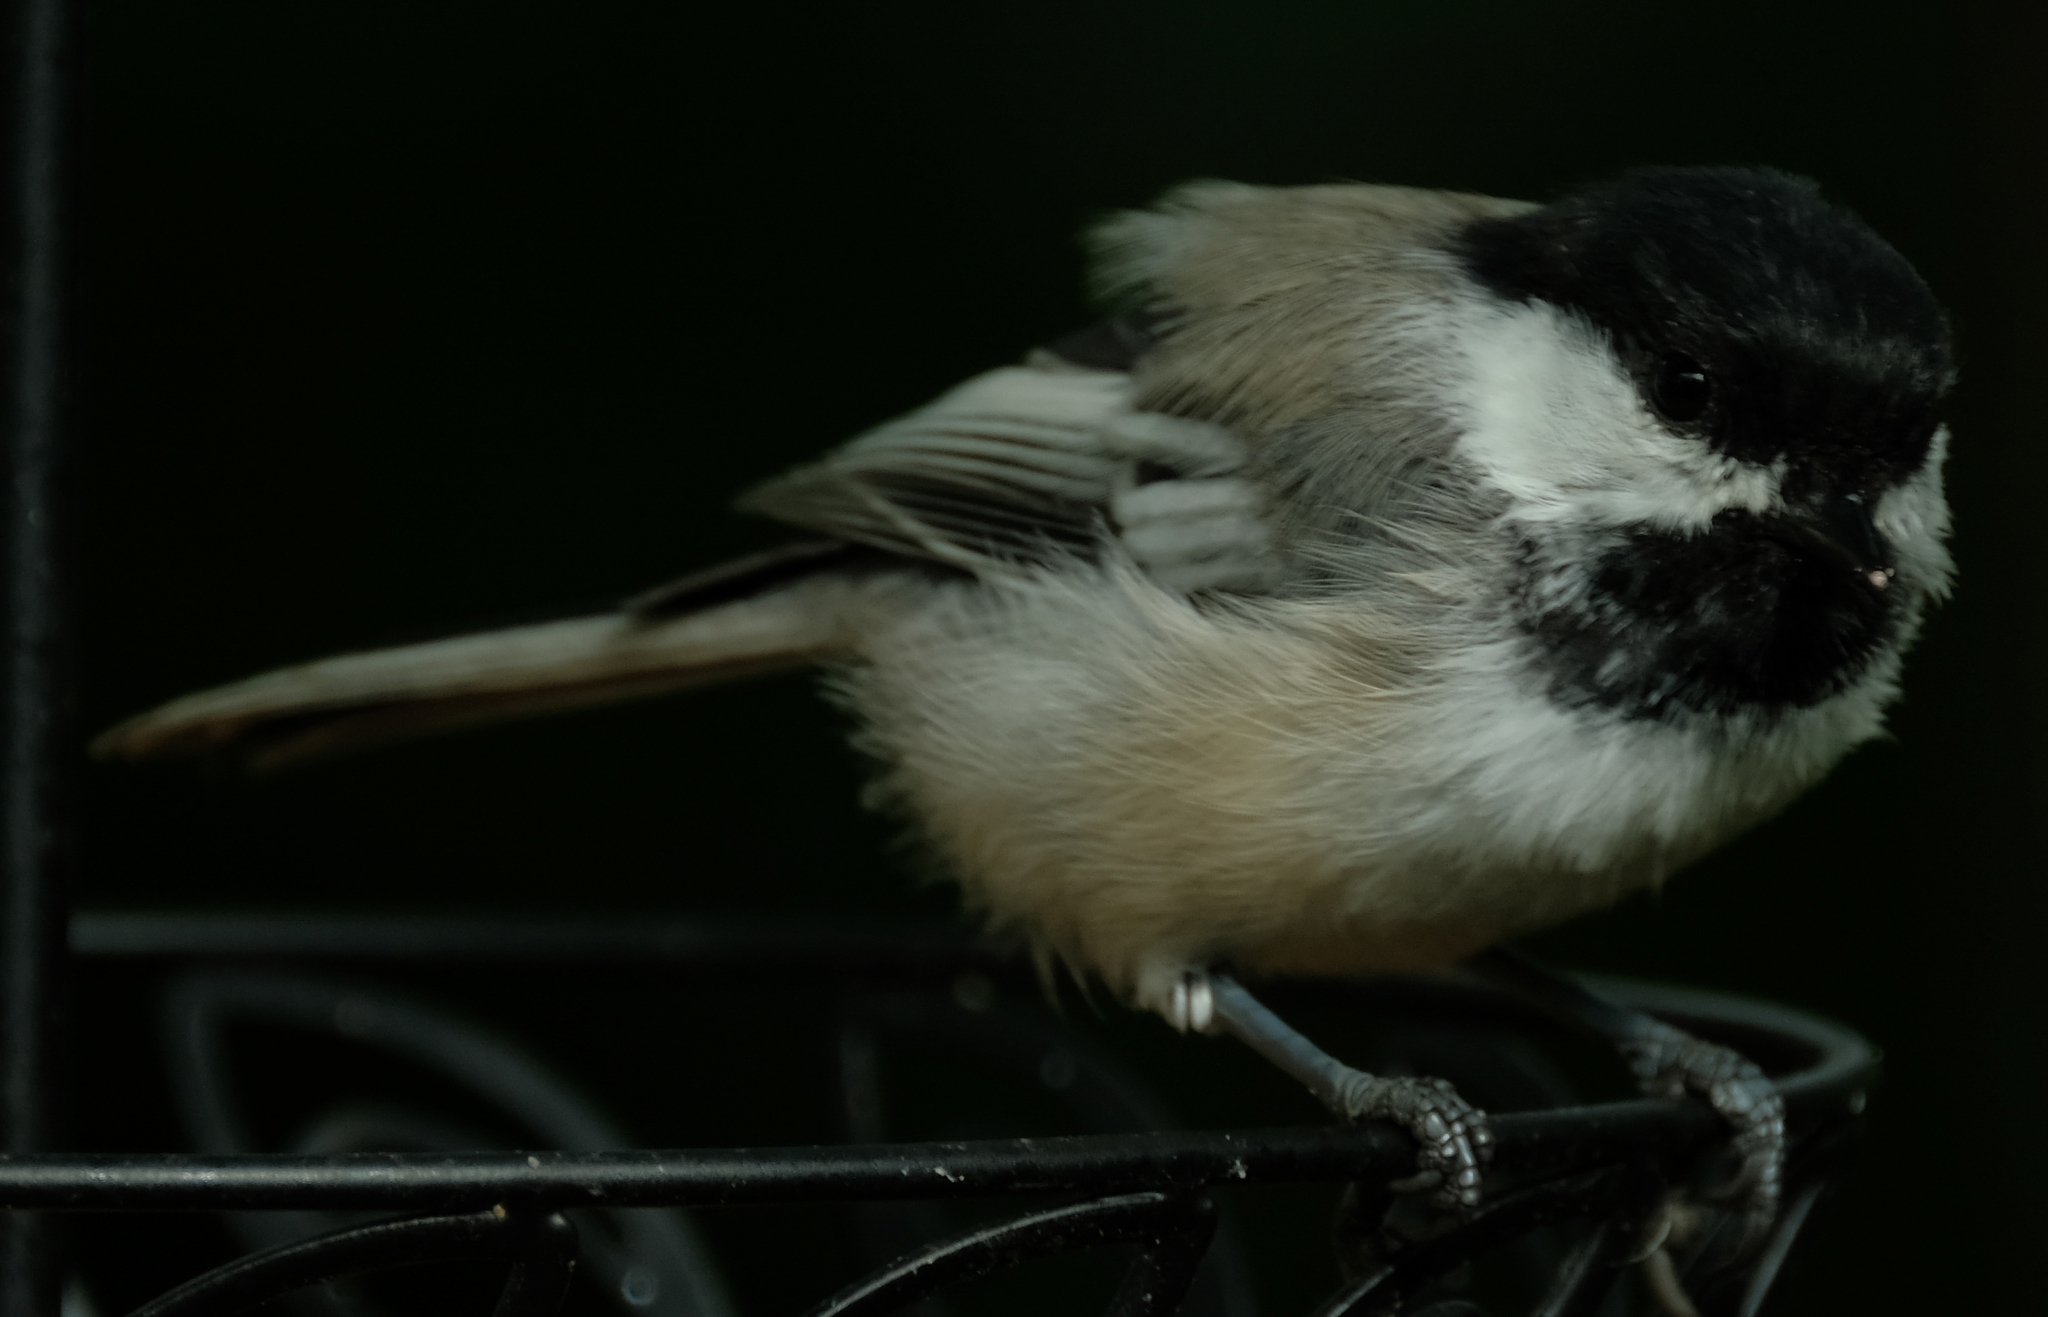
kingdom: Animalia
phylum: Chordata
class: Aves
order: Passeriformes
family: Paridae
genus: Poecile
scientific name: Poecile atricapillus
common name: Black-capped chickadee
